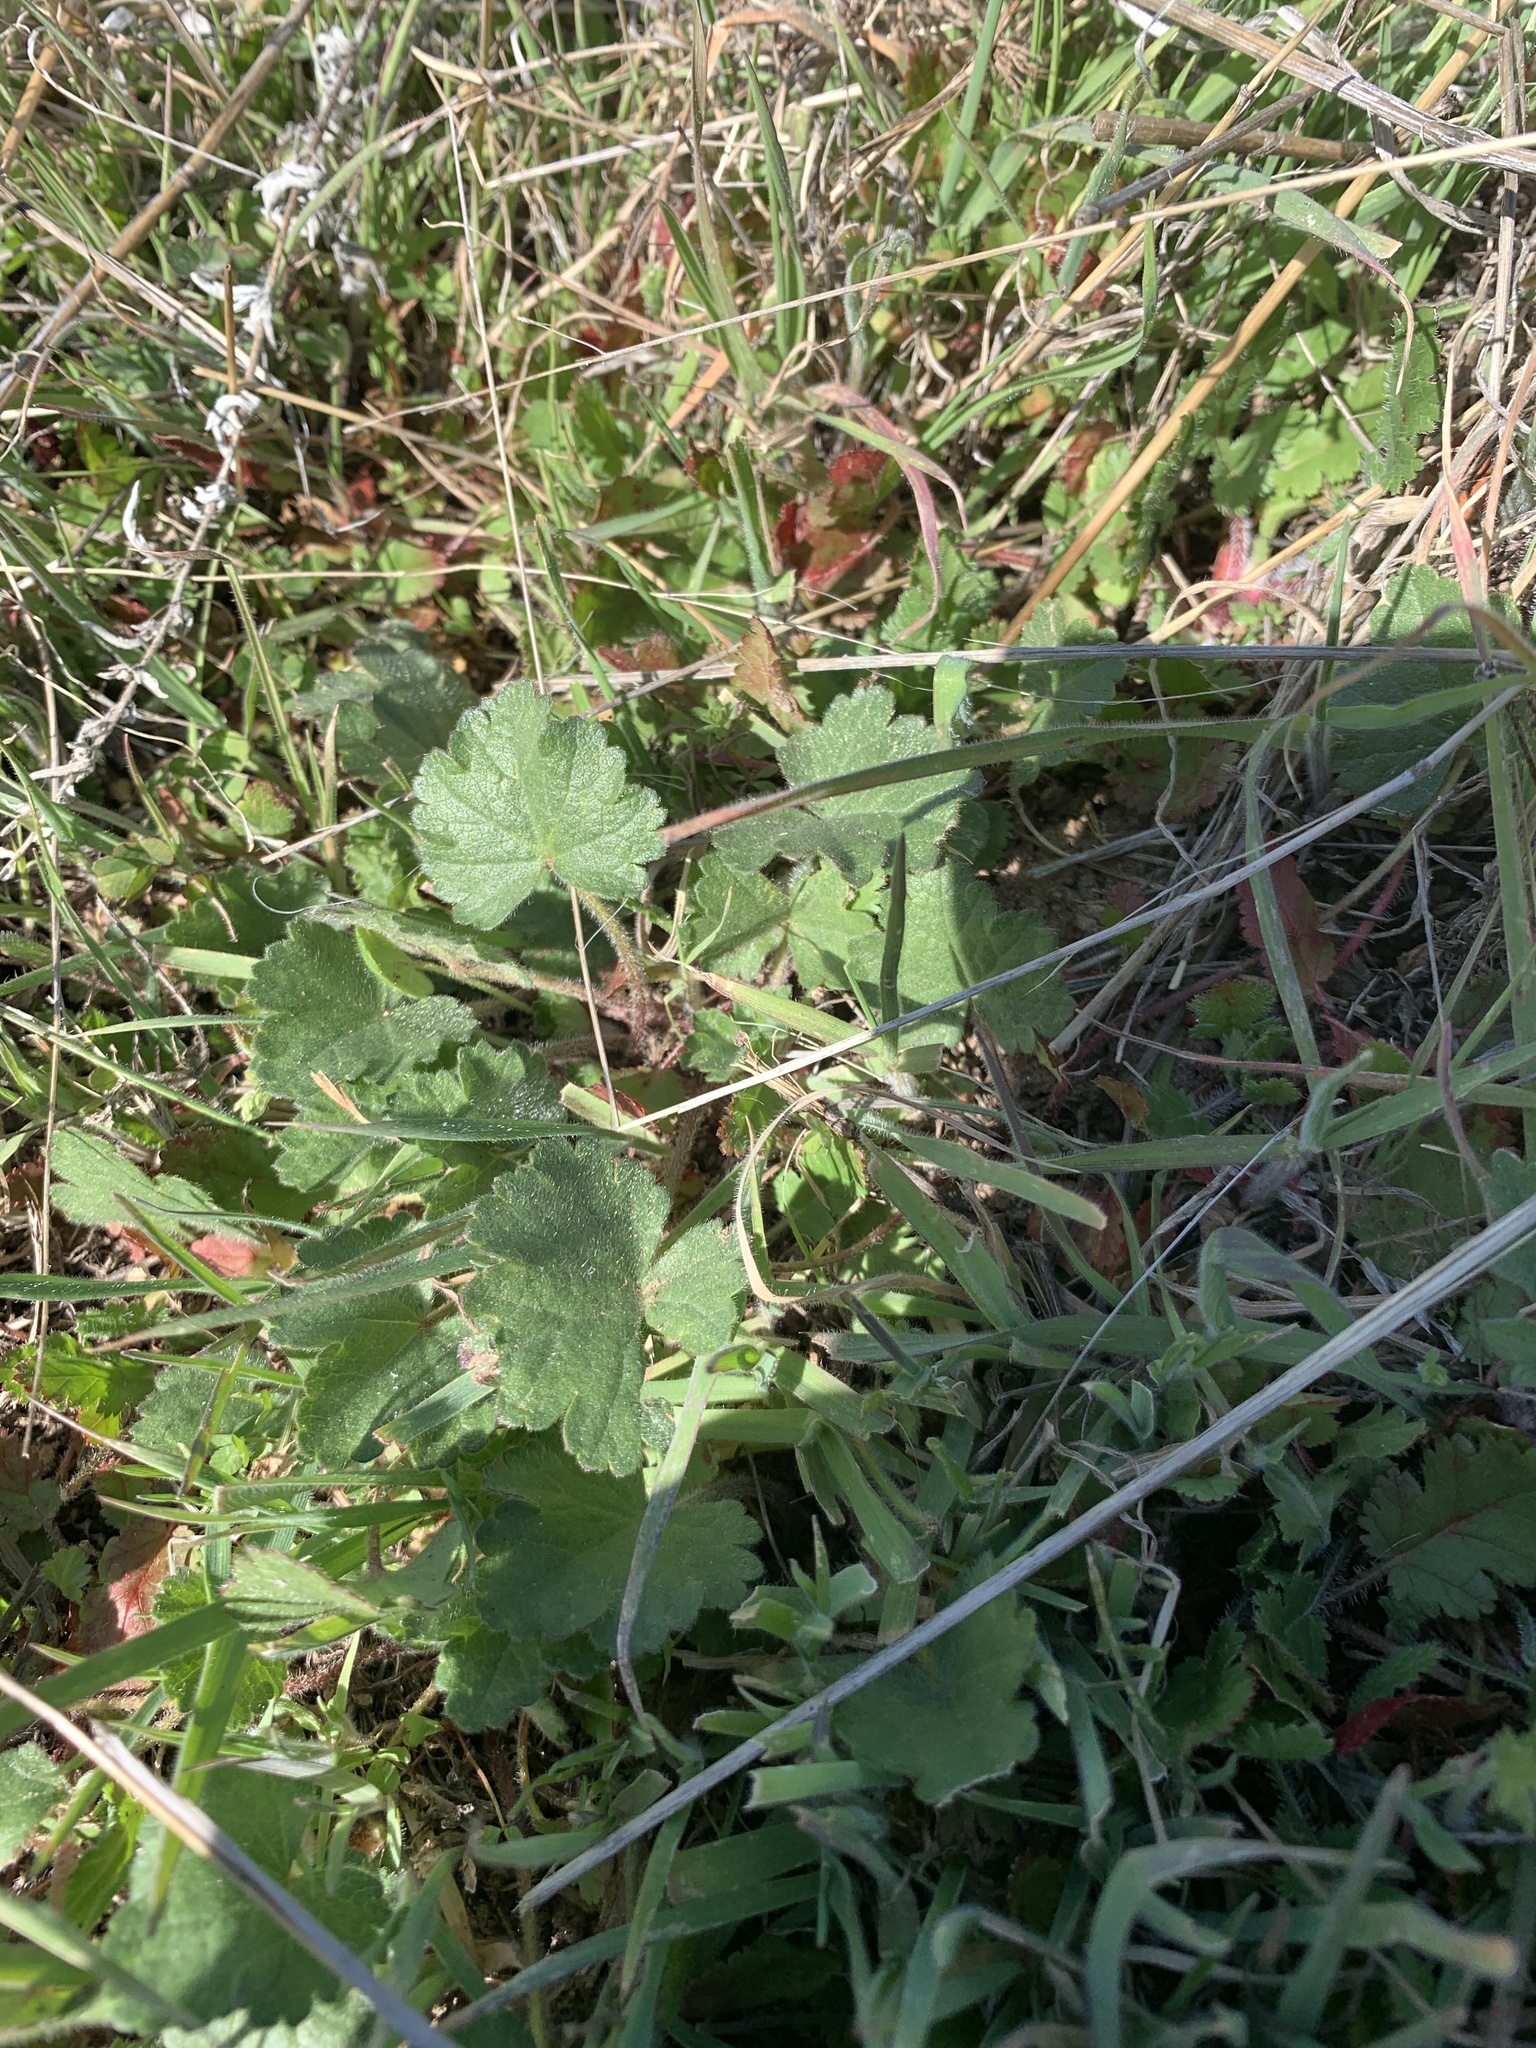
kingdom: Plantae
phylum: Tracheophyta
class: Magnoliopsida
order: Malvales
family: Malvaceae
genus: Sidalcea
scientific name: Sidalcea sparsifolia
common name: Southern checkerbloom
